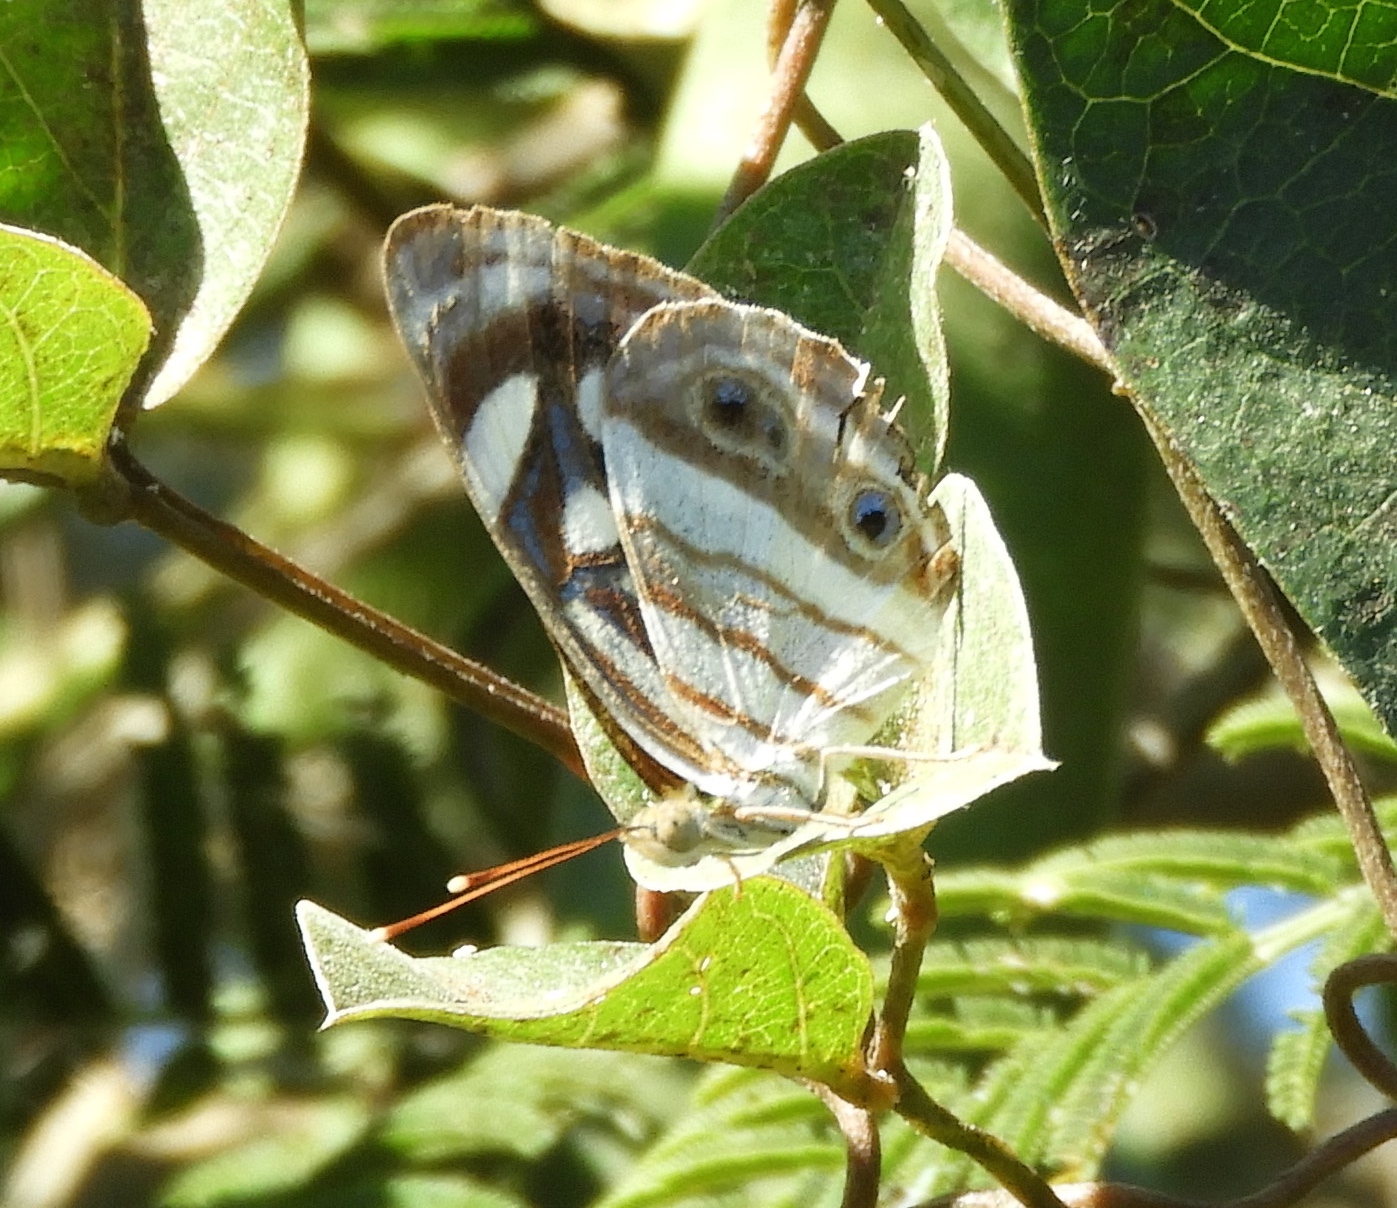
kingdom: Animalia
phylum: Arthropoda
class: Insecta
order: Lepidoptera
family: Nymphalidae
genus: Dynamine
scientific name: Dynamine mylitta
